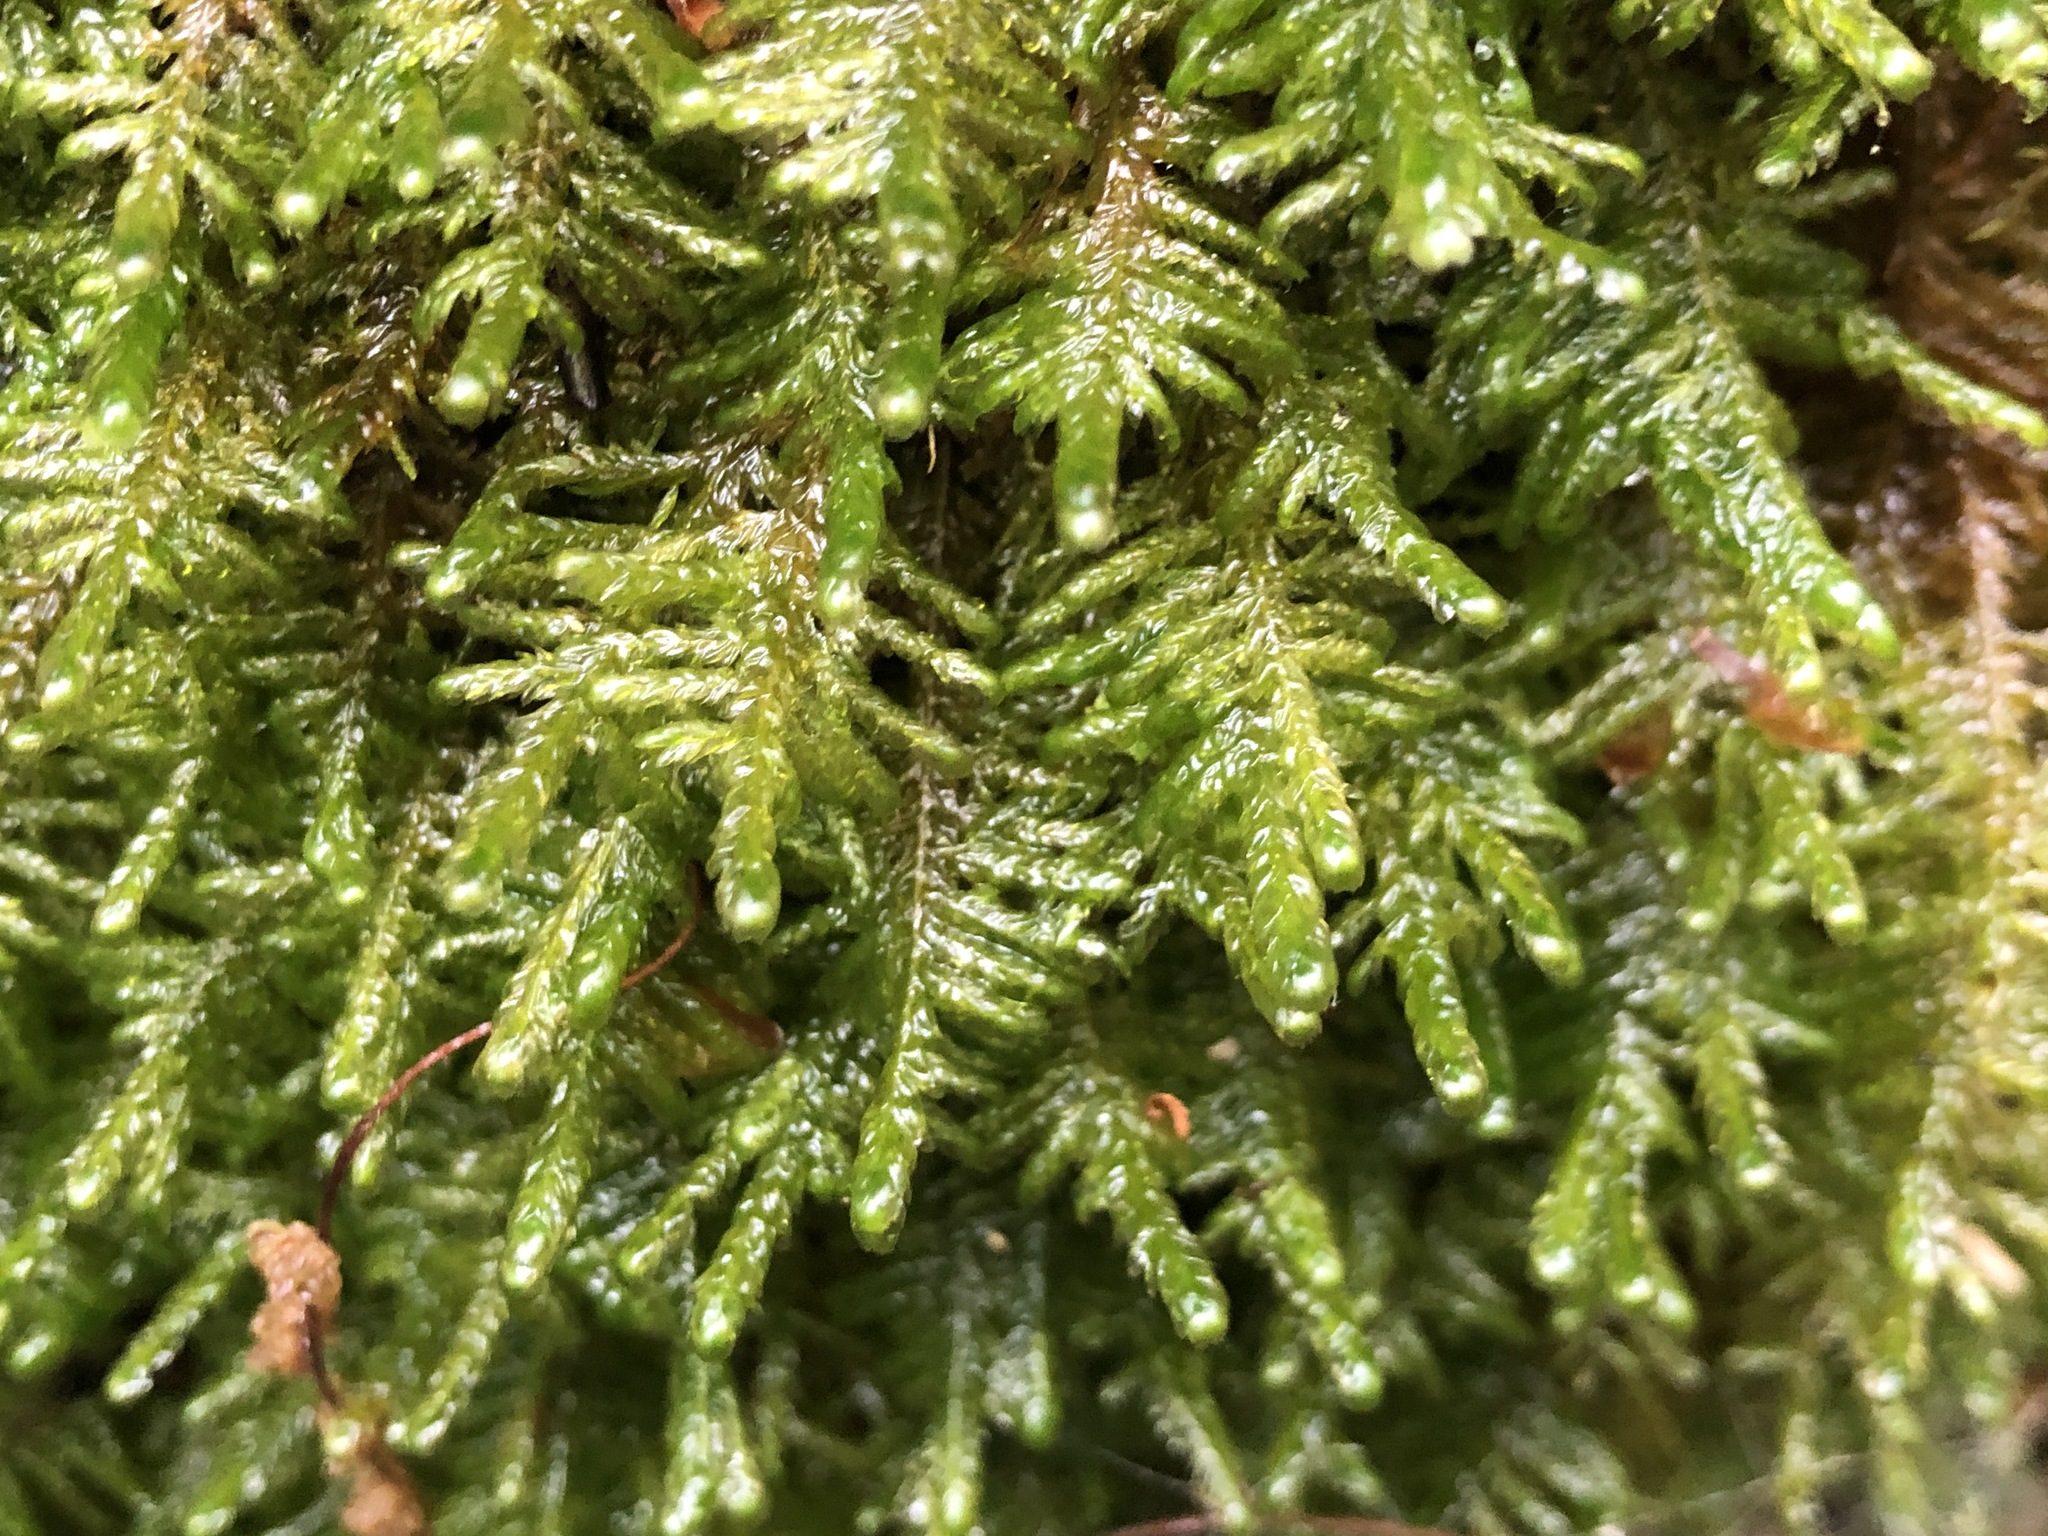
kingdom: Plantae
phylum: Bryophyta
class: Bryopsida
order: Hypnales
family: Neckeraceae
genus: Alleniella
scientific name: Alleniella complanata
